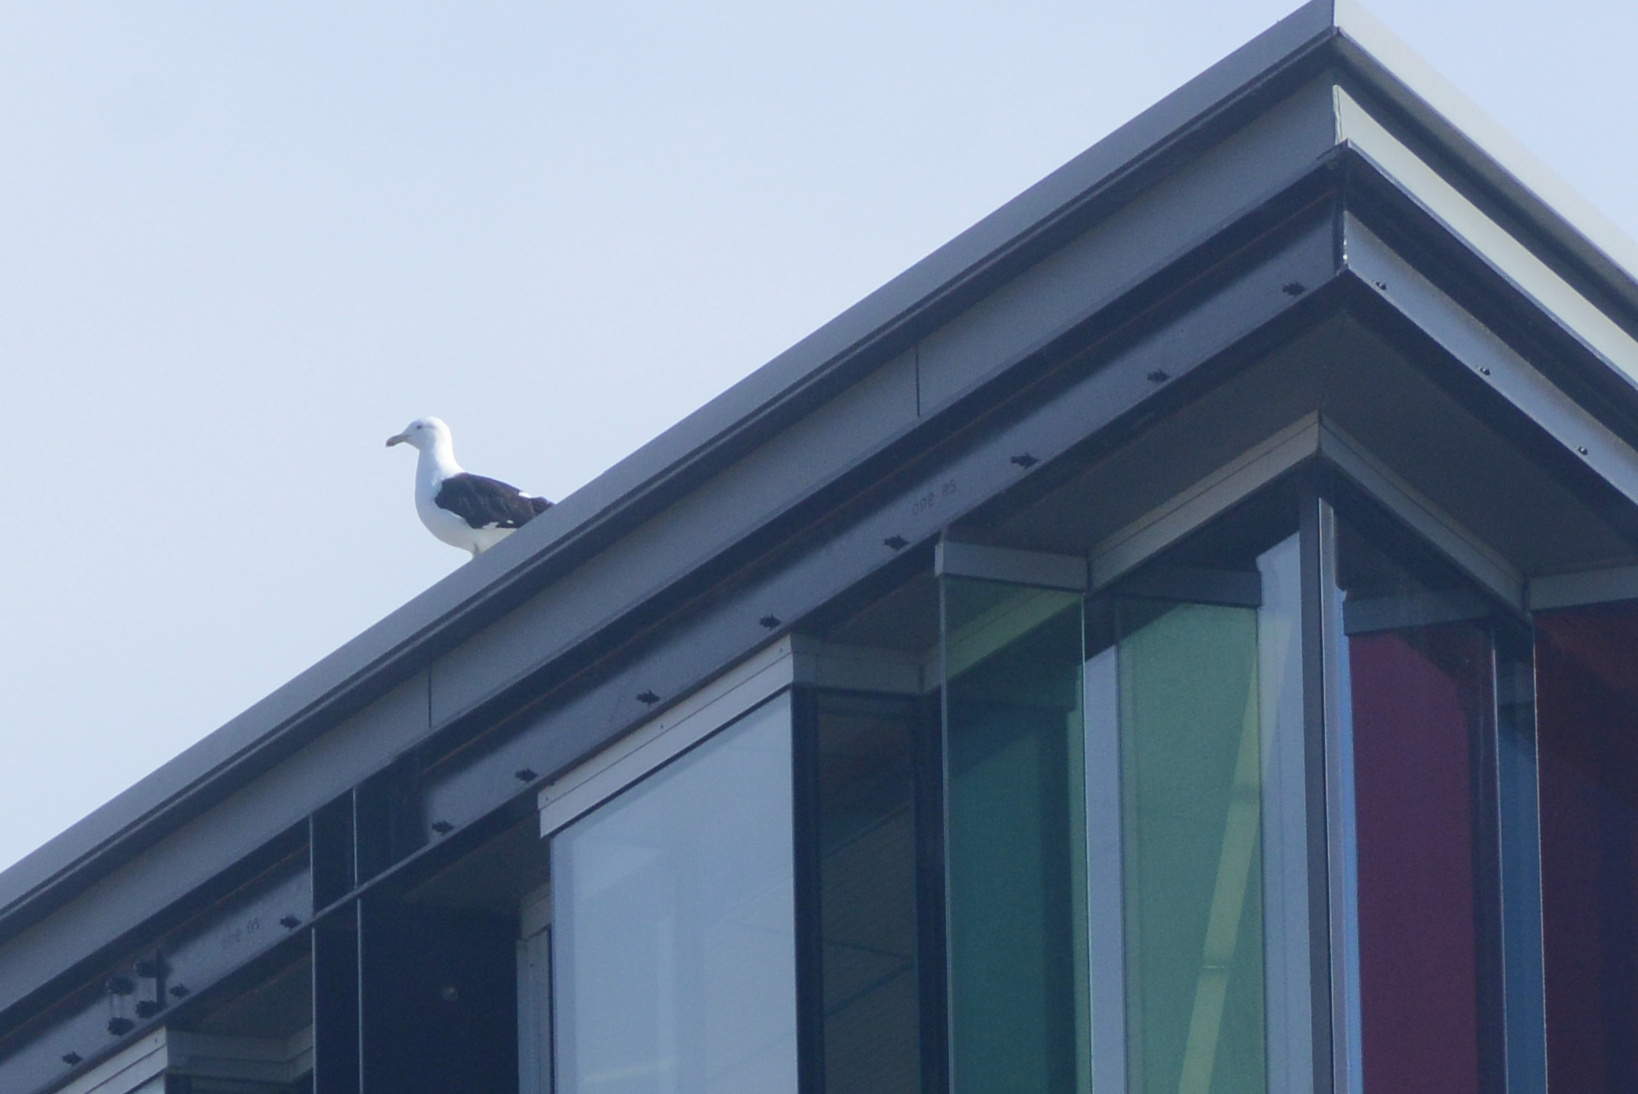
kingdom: Animalia
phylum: Chordata
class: Aves
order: Charadriiformes
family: Laridae
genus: Larus
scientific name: Larus dominicanus
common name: Kelp gull
